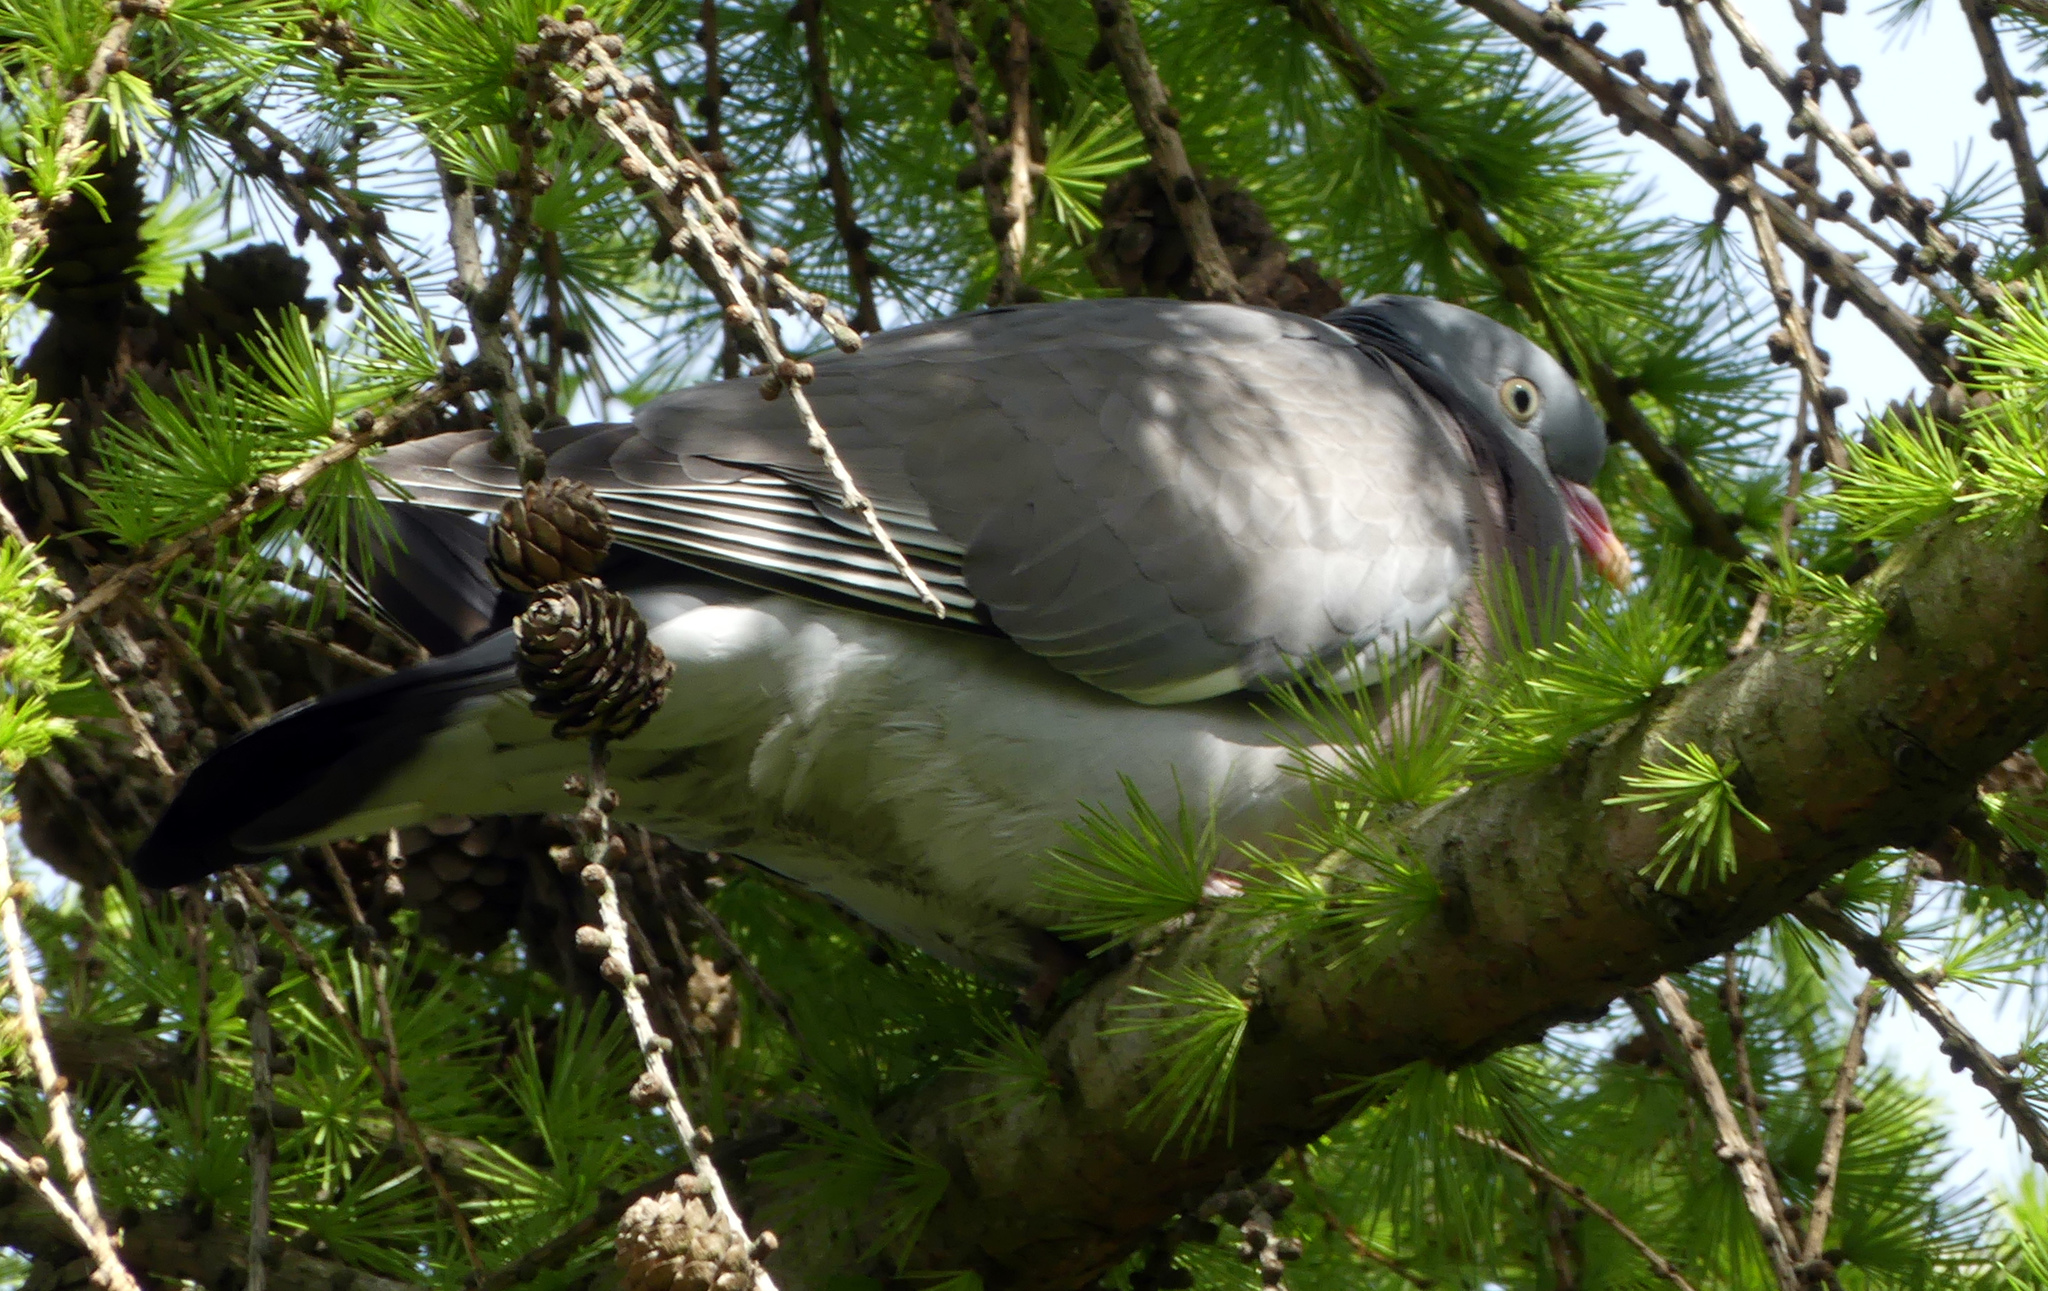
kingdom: Animalia
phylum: Chordata
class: Aves
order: Columbiformes
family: Columbidae
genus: Columba
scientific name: Columba palumbus
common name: Common wood pigeon
